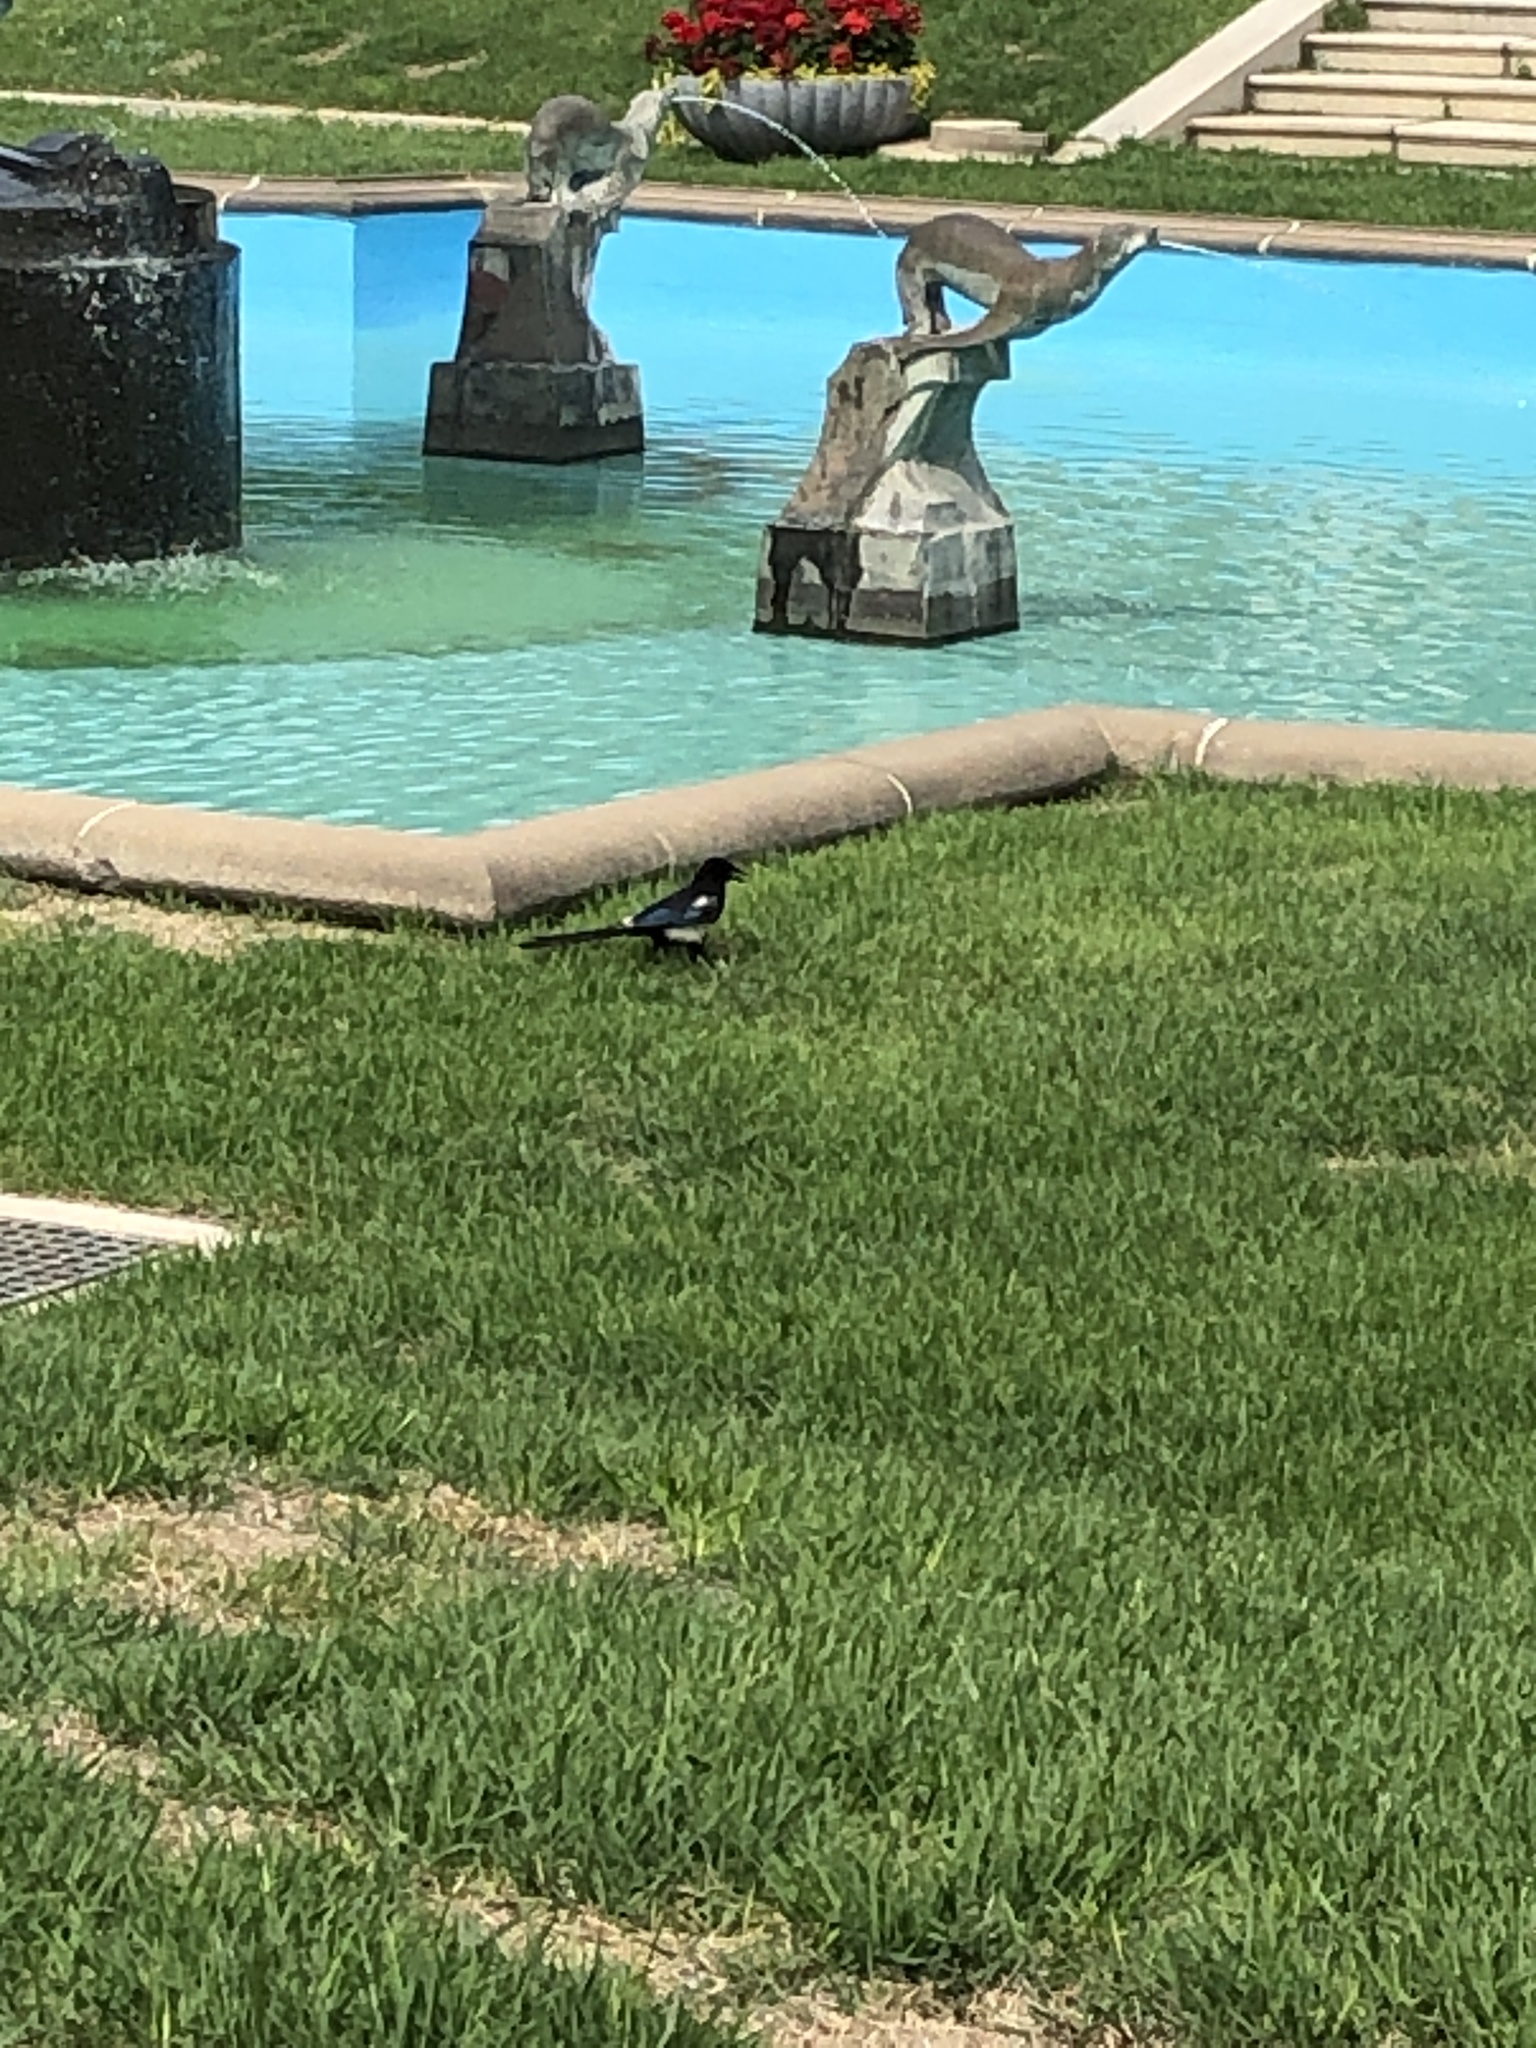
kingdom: Animalia
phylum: Chordata
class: Aves
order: Passeriformes
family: Corvidae
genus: Pica
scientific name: Pica serica
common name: Oriental magpie
